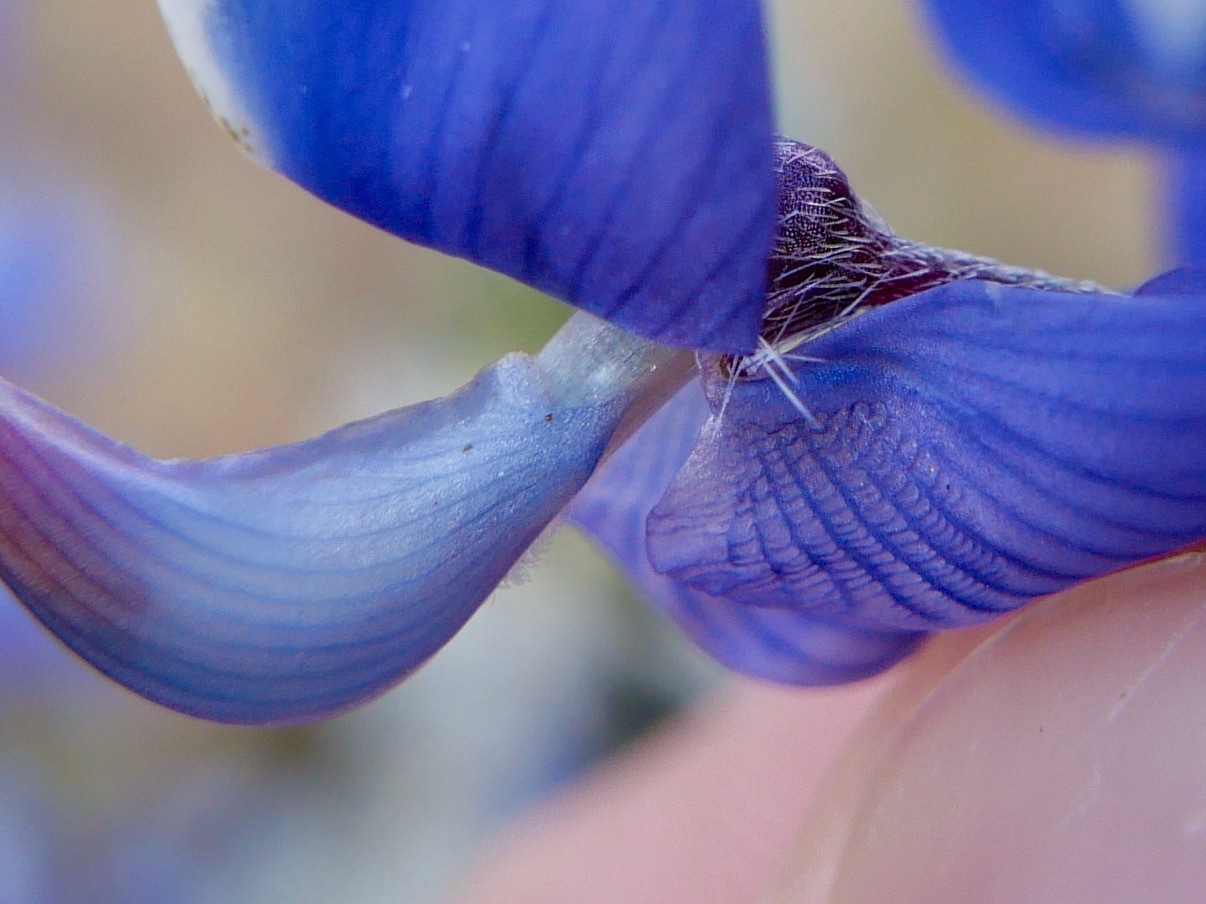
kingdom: Plantae
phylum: Tracheophyta
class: Magnoliopsida
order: Fabales
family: Fabaceae
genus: Lupinus
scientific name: Lupinus benthamii
